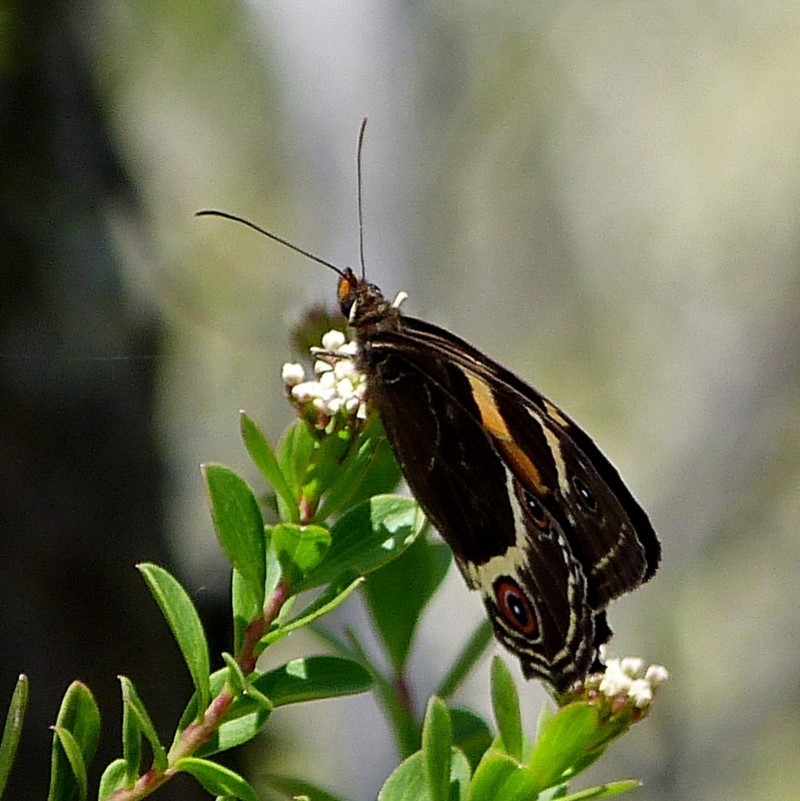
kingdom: Animalia
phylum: Arthropoda
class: Insecta
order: Lepidoptera
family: Nymphalidae
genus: Tisiphone
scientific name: Tisiphone abeona
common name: Swordgrass brown
